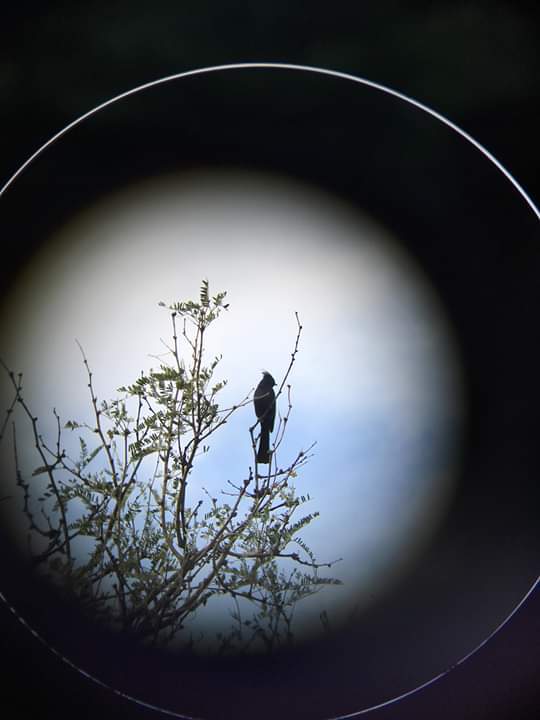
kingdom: Animalia
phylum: Chordata
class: Aves
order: Passeriformes
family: Ptilogonatidae
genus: Phainopepla
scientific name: Phainopepla nitens
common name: Phainopepla
